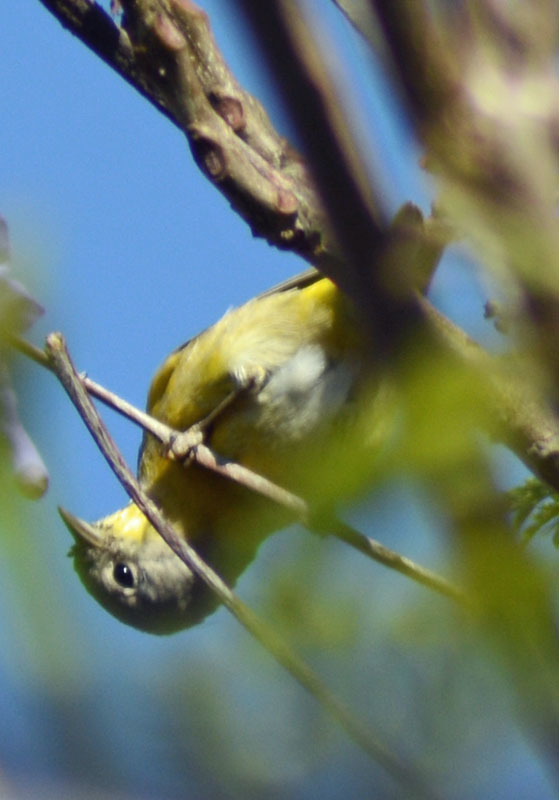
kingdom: Animalia
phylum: Chordata
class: Aves
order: Passeriformes
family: Parulidae
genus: Leiothlypis
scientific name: Leiothlypis ruficapilla
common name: Nashville warbler
